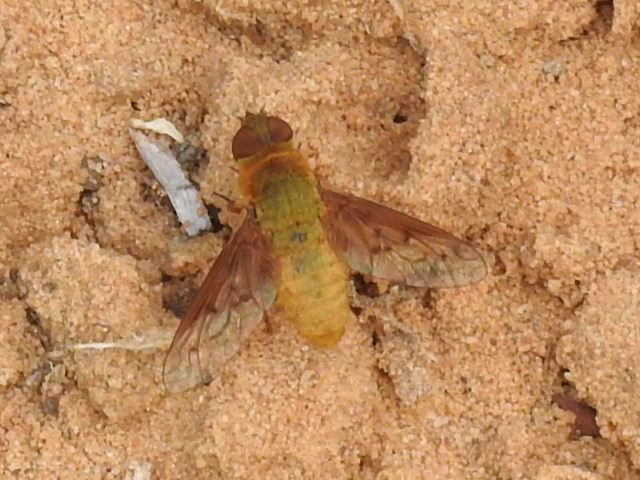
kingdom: Animalia
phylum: Arthropoda
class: Insecta
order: Diptera
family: Bombyliidae
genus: Chrysanthrax
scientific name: Chrysanthrax edititius
